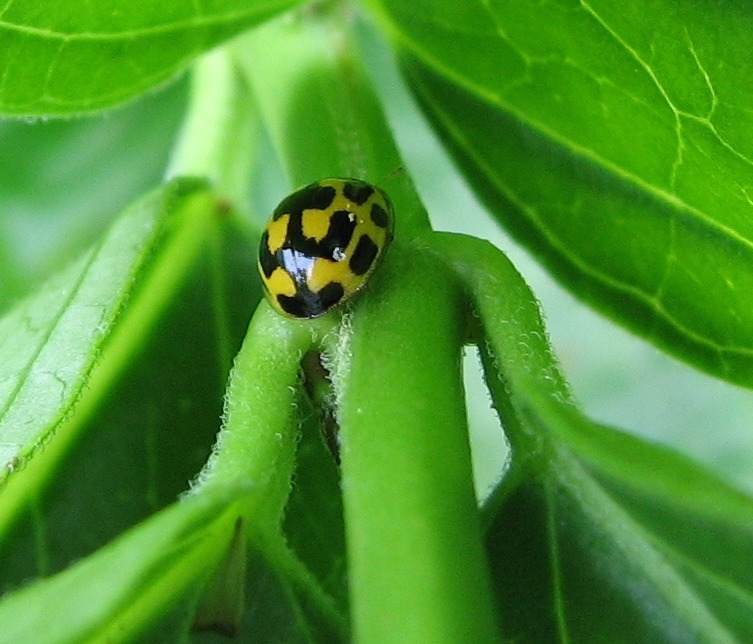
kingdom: Animalia
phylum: Arthropoda
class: Insecta
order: Coleoptera
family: Coccinellidae
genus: Propylaea
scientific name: Propylaea quatuordecimpunctata
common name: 14-spotted ladybird beetle
